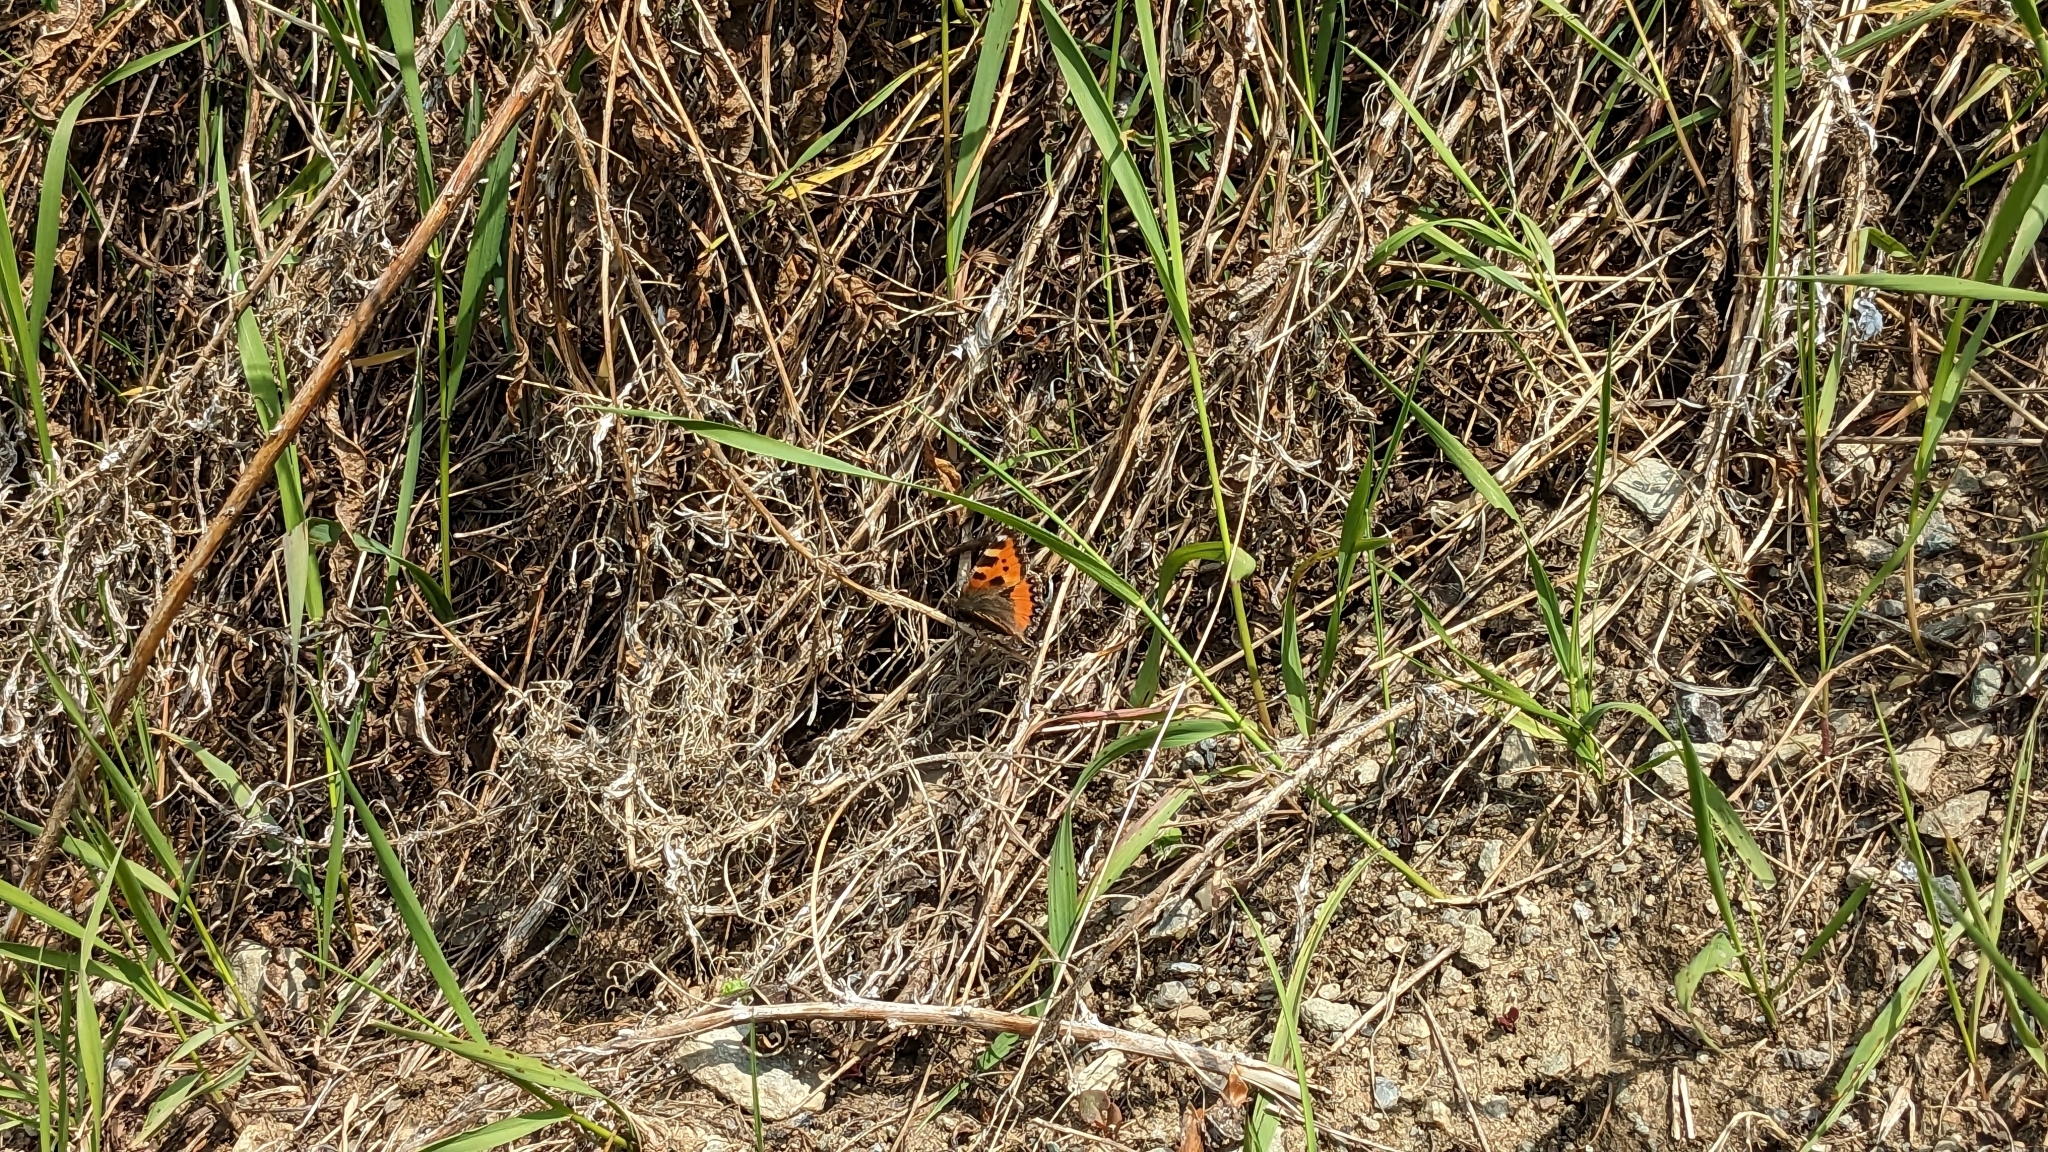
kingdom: Animalia
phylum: Arthropoda
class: Insecta
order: Lepidoptera
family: Nymphalidae
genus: Aglais
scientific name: Aglais urticae
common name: Small tortoiseshell
